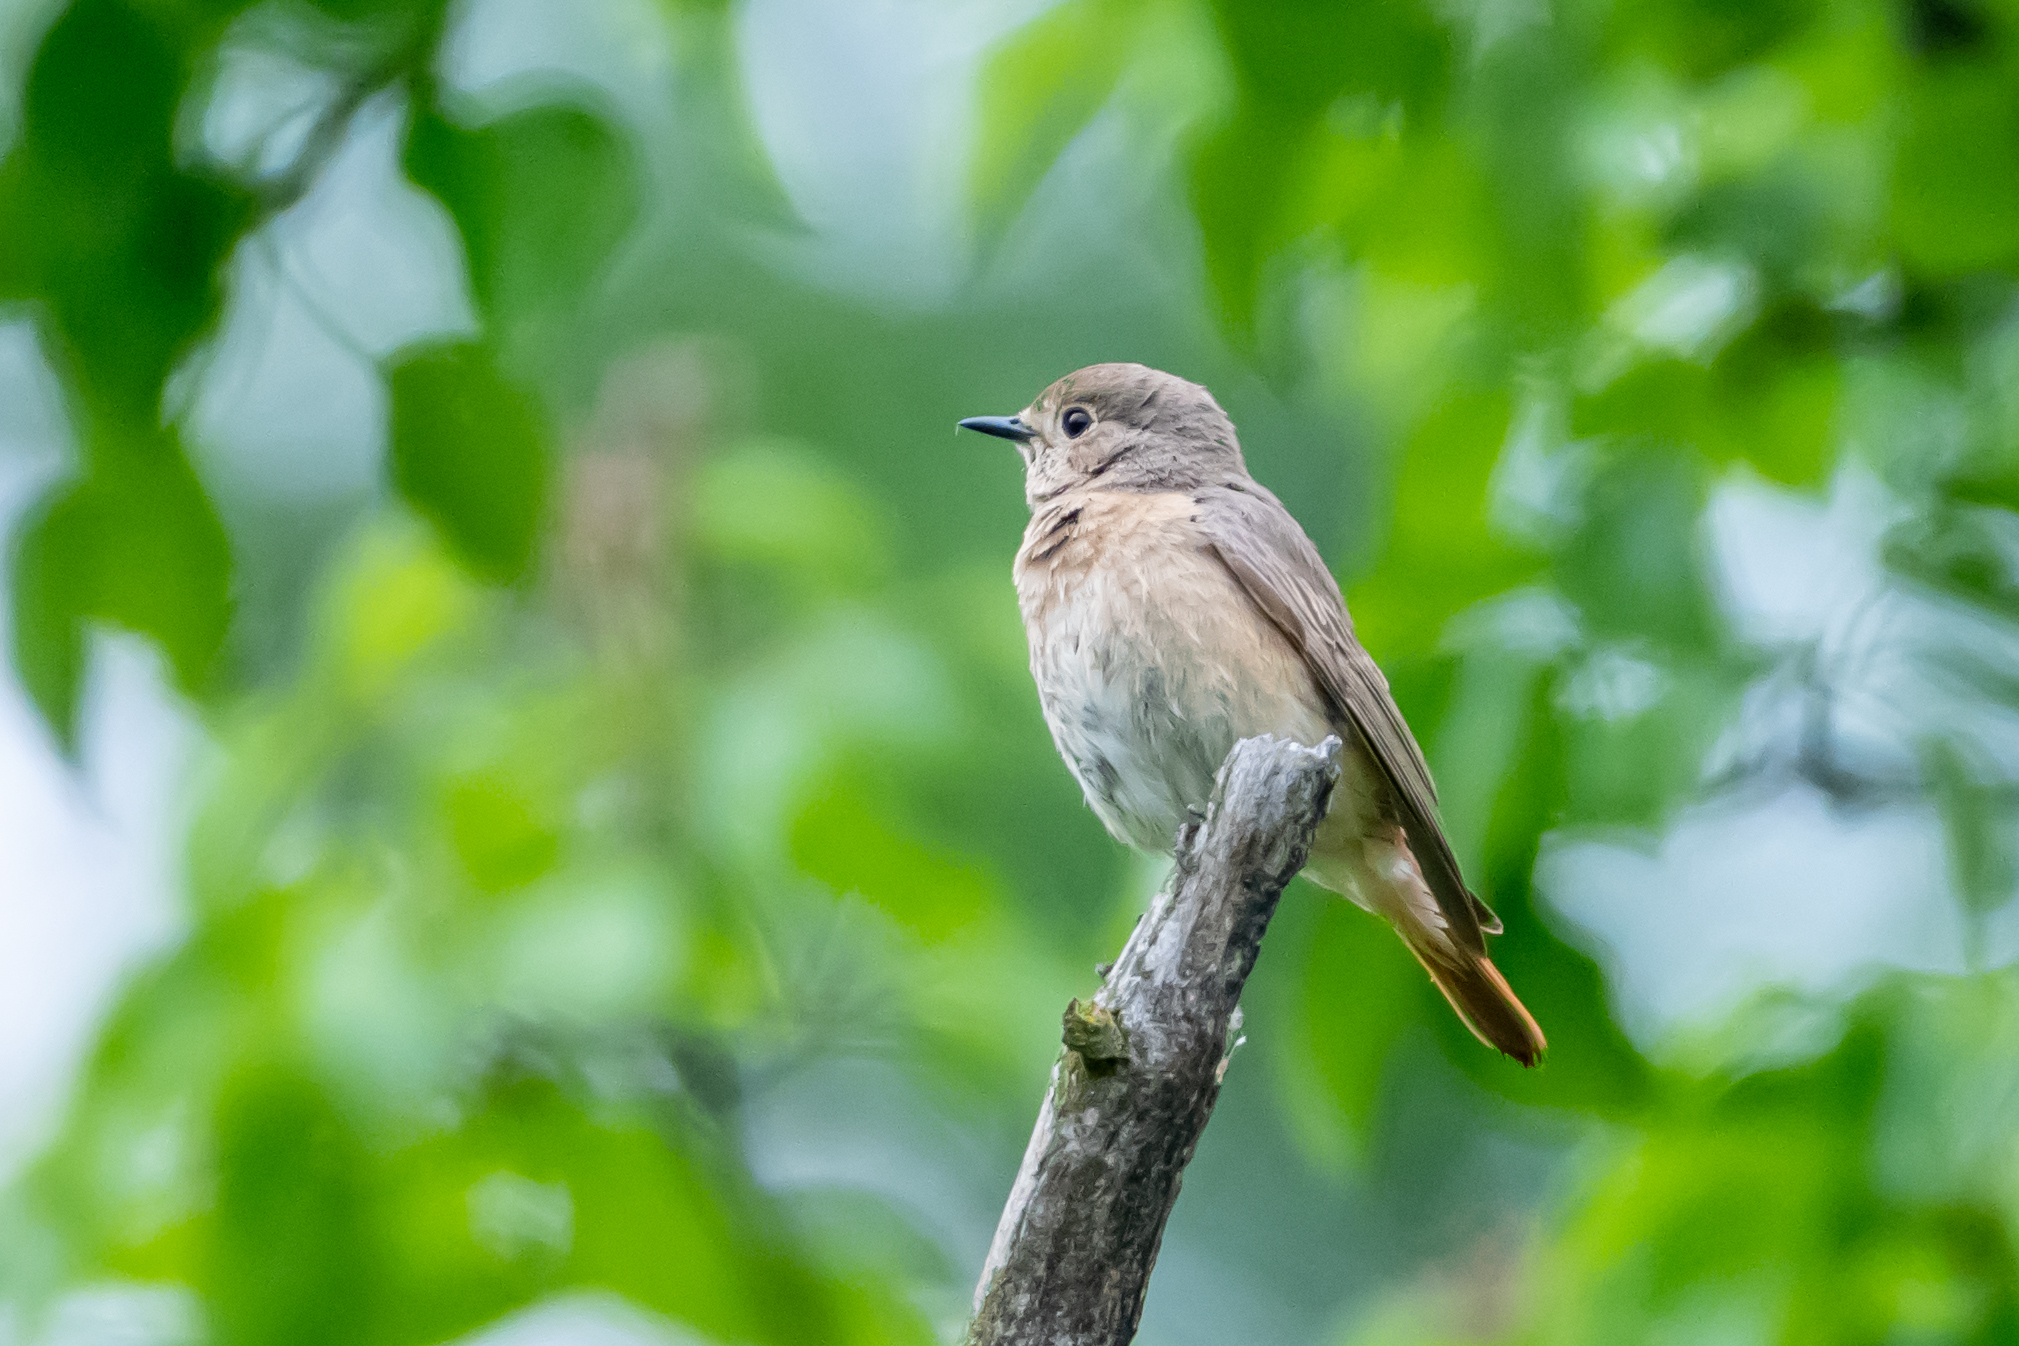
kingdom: Animalia
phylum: Chordata
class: Aves
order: Passeriformes
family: Muscicapidae
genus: Phoenicurus
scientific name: Phoenicurus phoenicurus
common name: Common redstart
